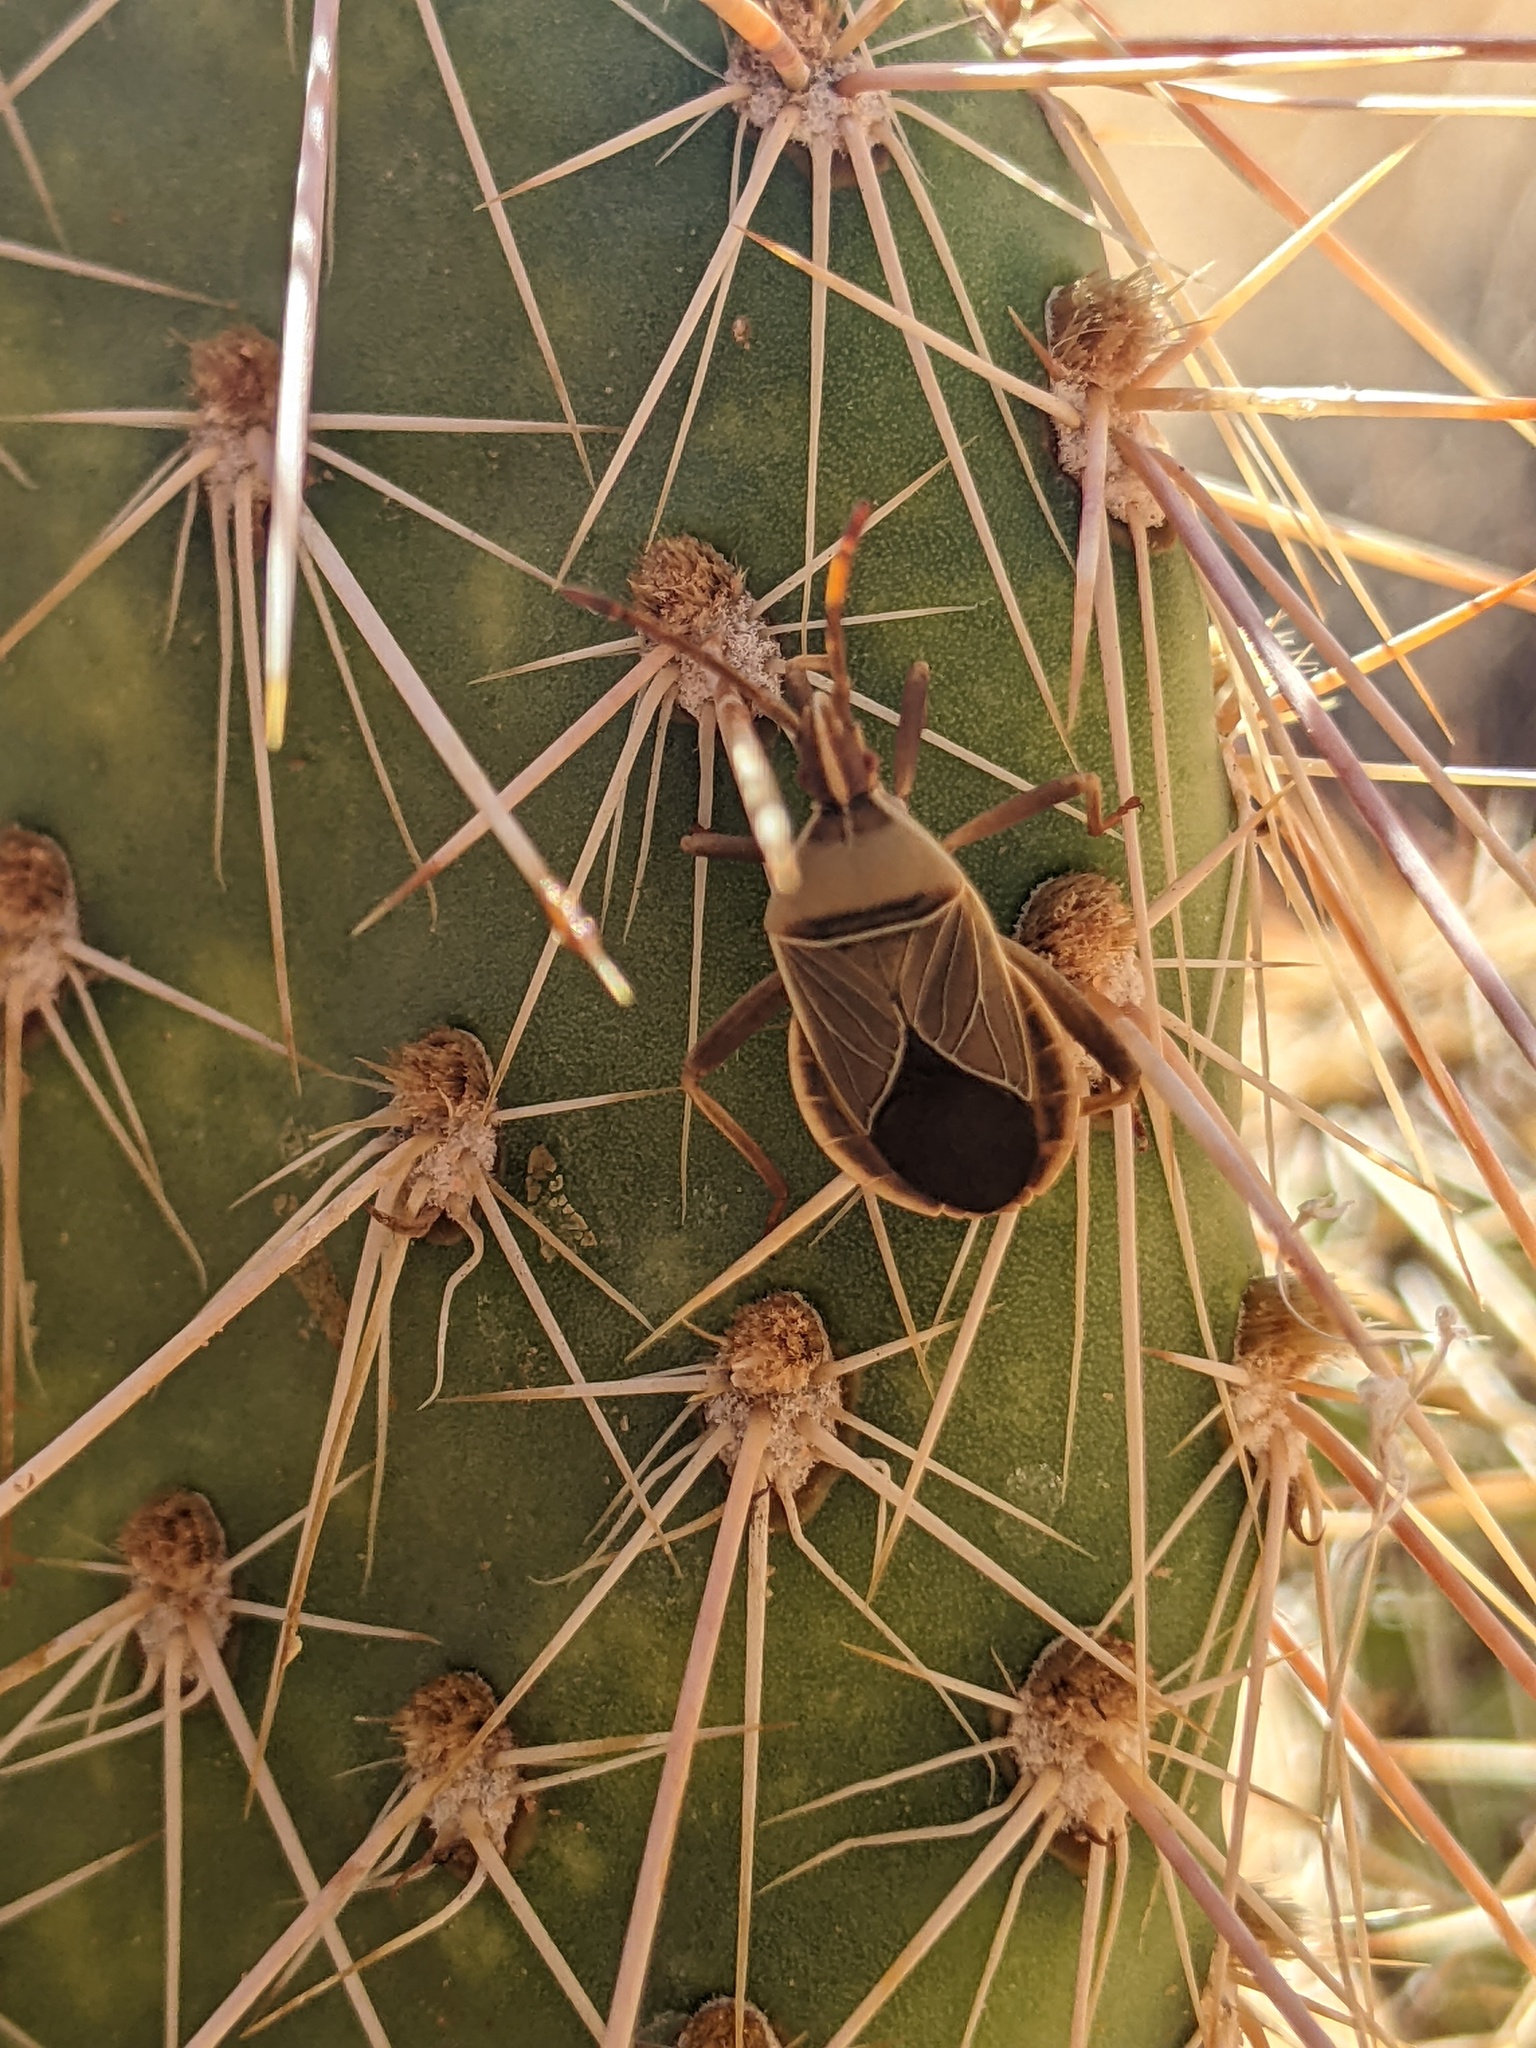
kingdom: Animalia
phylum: Arthropoda
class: Insecta
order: Hemiptera
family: Coreidae
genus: Chelinidea
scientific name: Chelinidea vittiger
